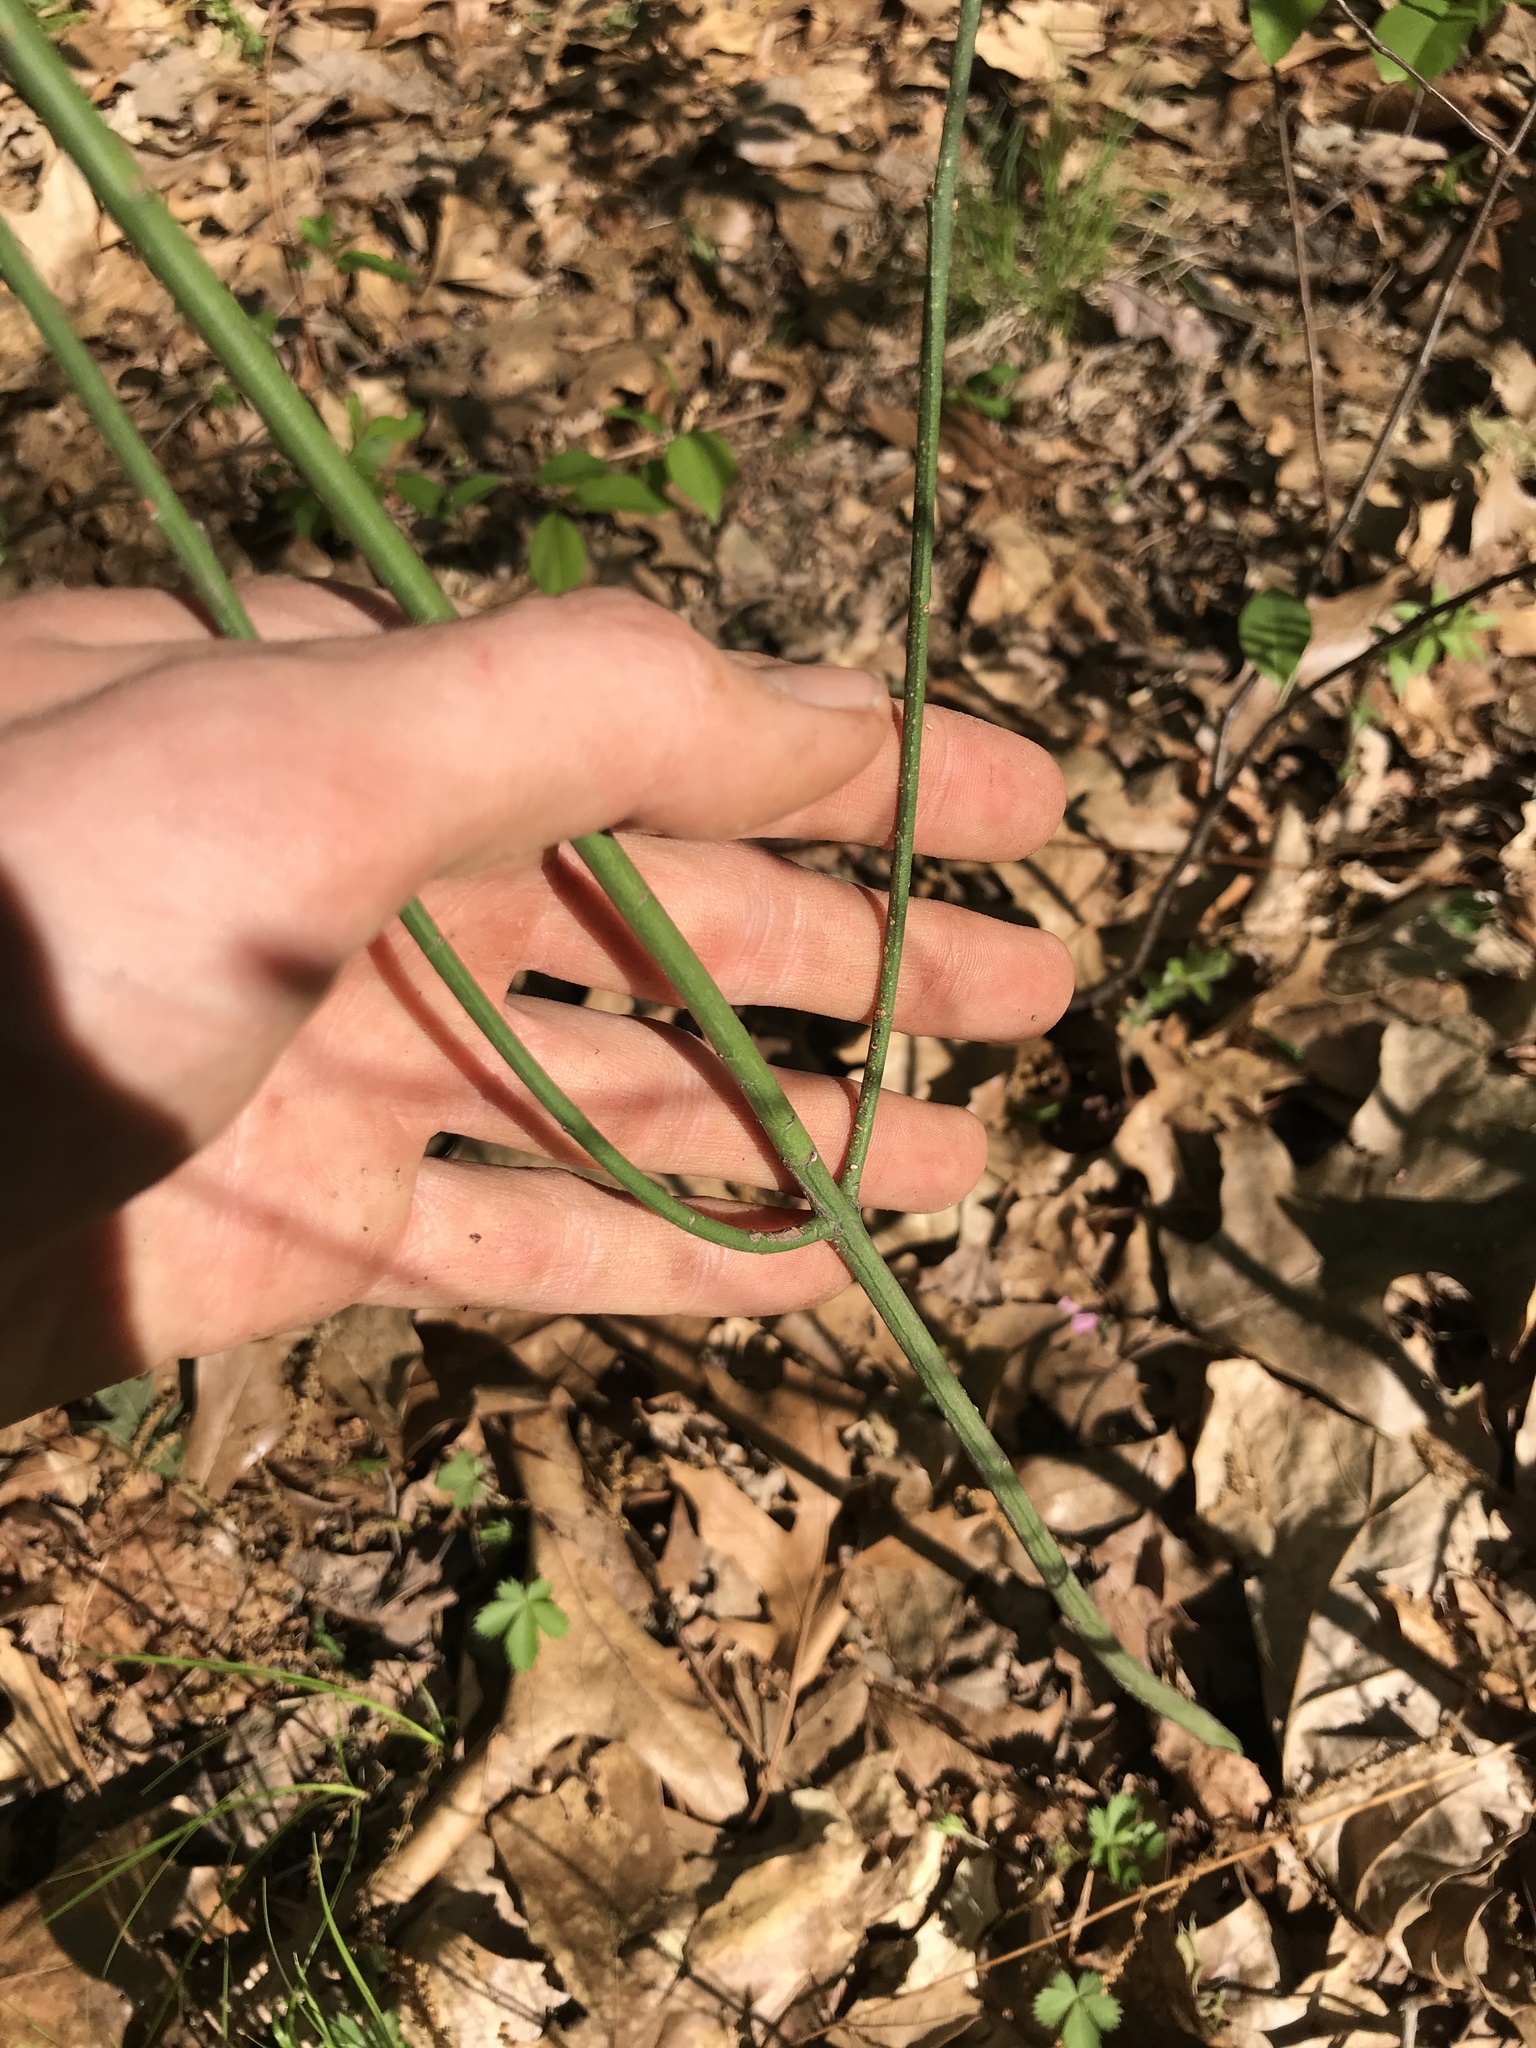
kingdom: Plantae
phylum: Tracheophyta
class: Magnoliopsida
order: Celastrales
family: Celastraceae
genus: Euonymus
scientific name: Euonymus americanus
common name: Bursting-heart
